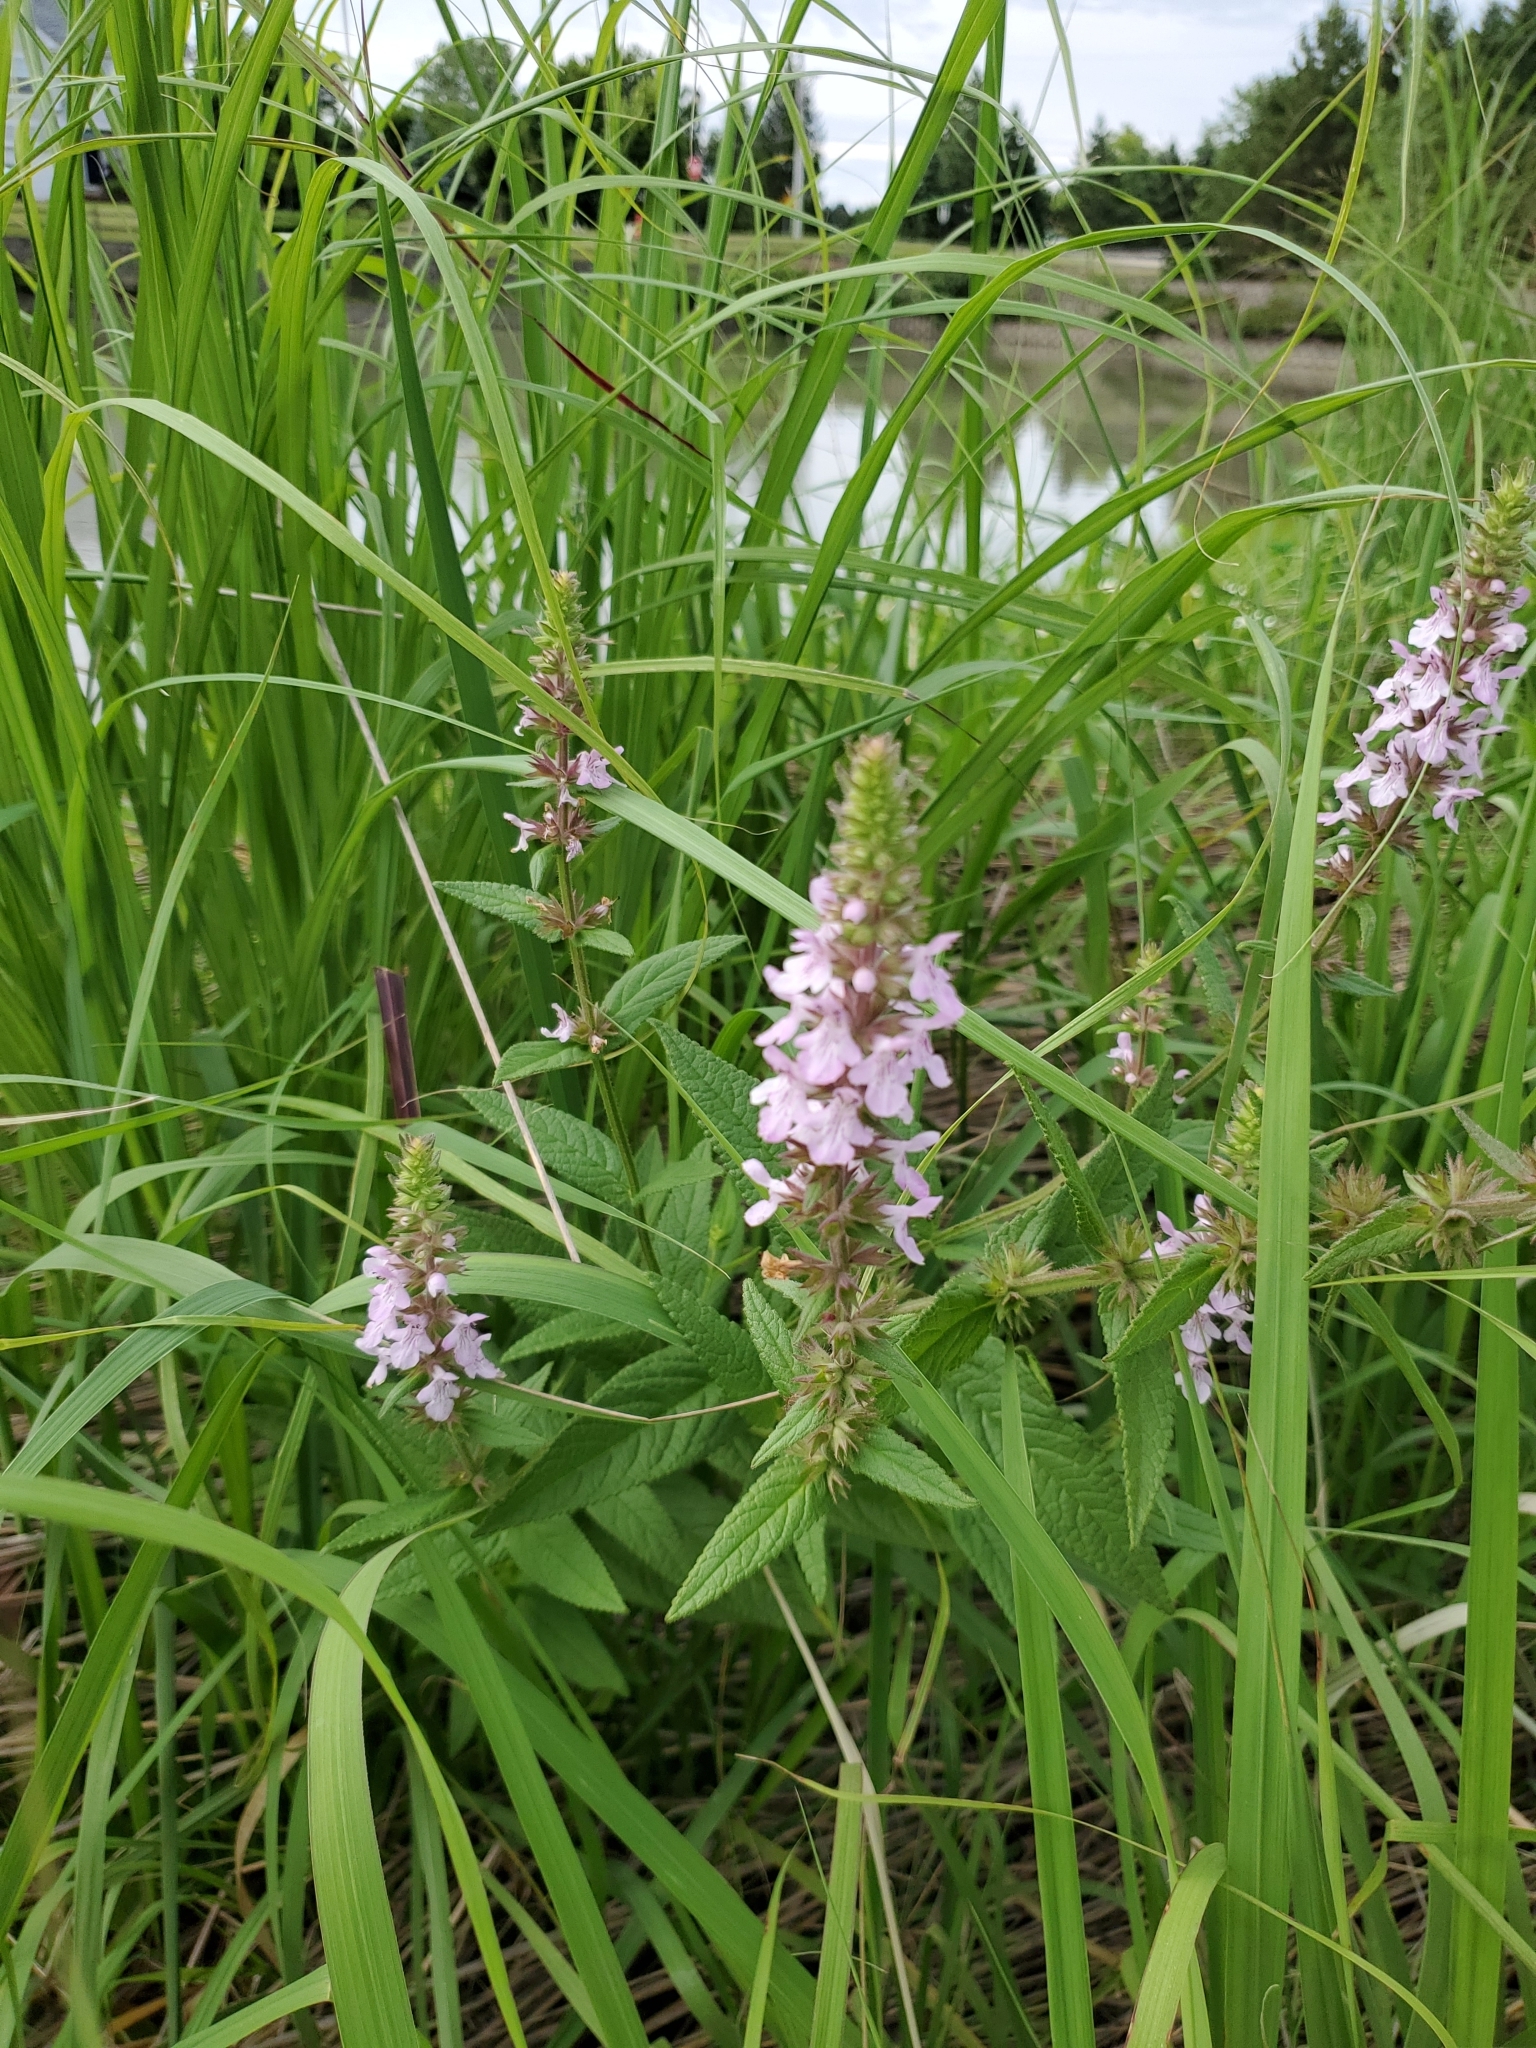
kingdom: Plantae
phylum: Tracheophyta
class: Magnoliopsida
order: Lamiales
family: Lamiaceae
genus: Stachys
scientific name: Stachys palustris
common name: Marsh woundwort
